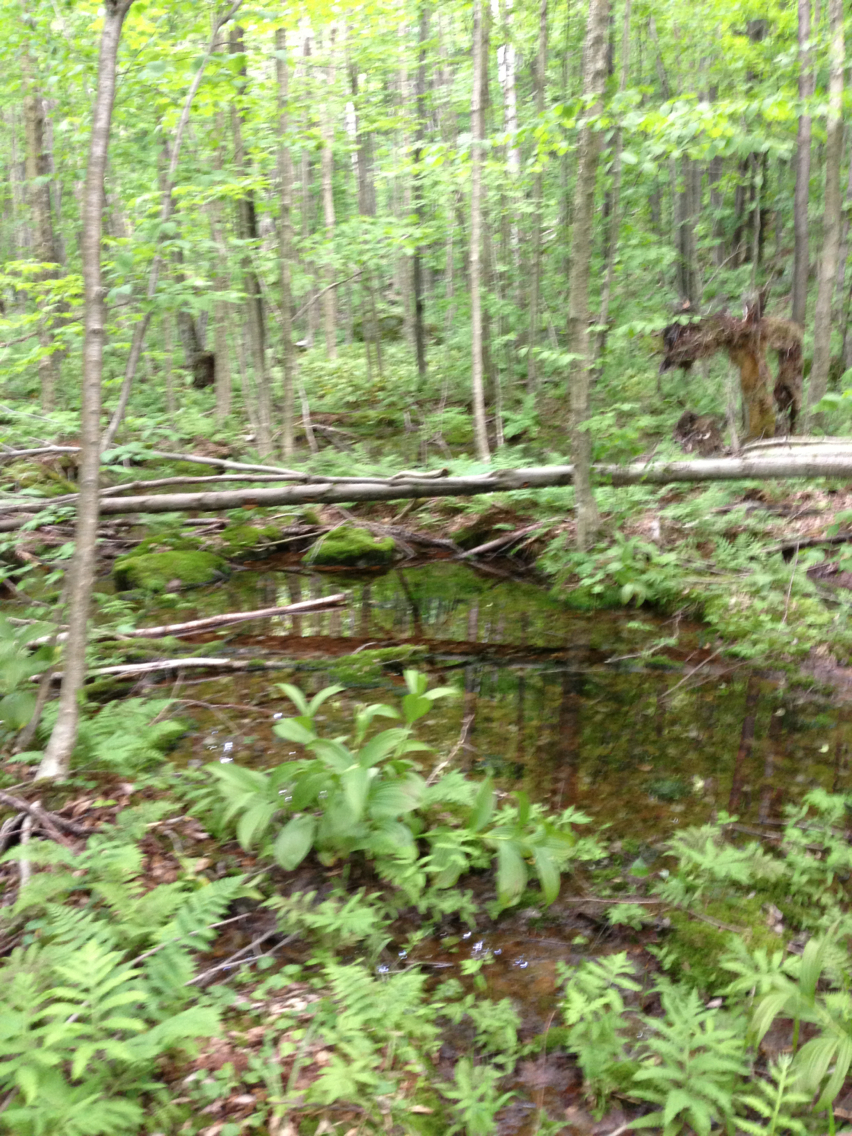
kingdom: Plantae
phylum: Tracheophyta
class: Polypodiopsida
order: Polypodiales
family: Onocleaceae
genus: Onoclea
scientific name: Onoclea sensibilis
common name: Sensitive fern
